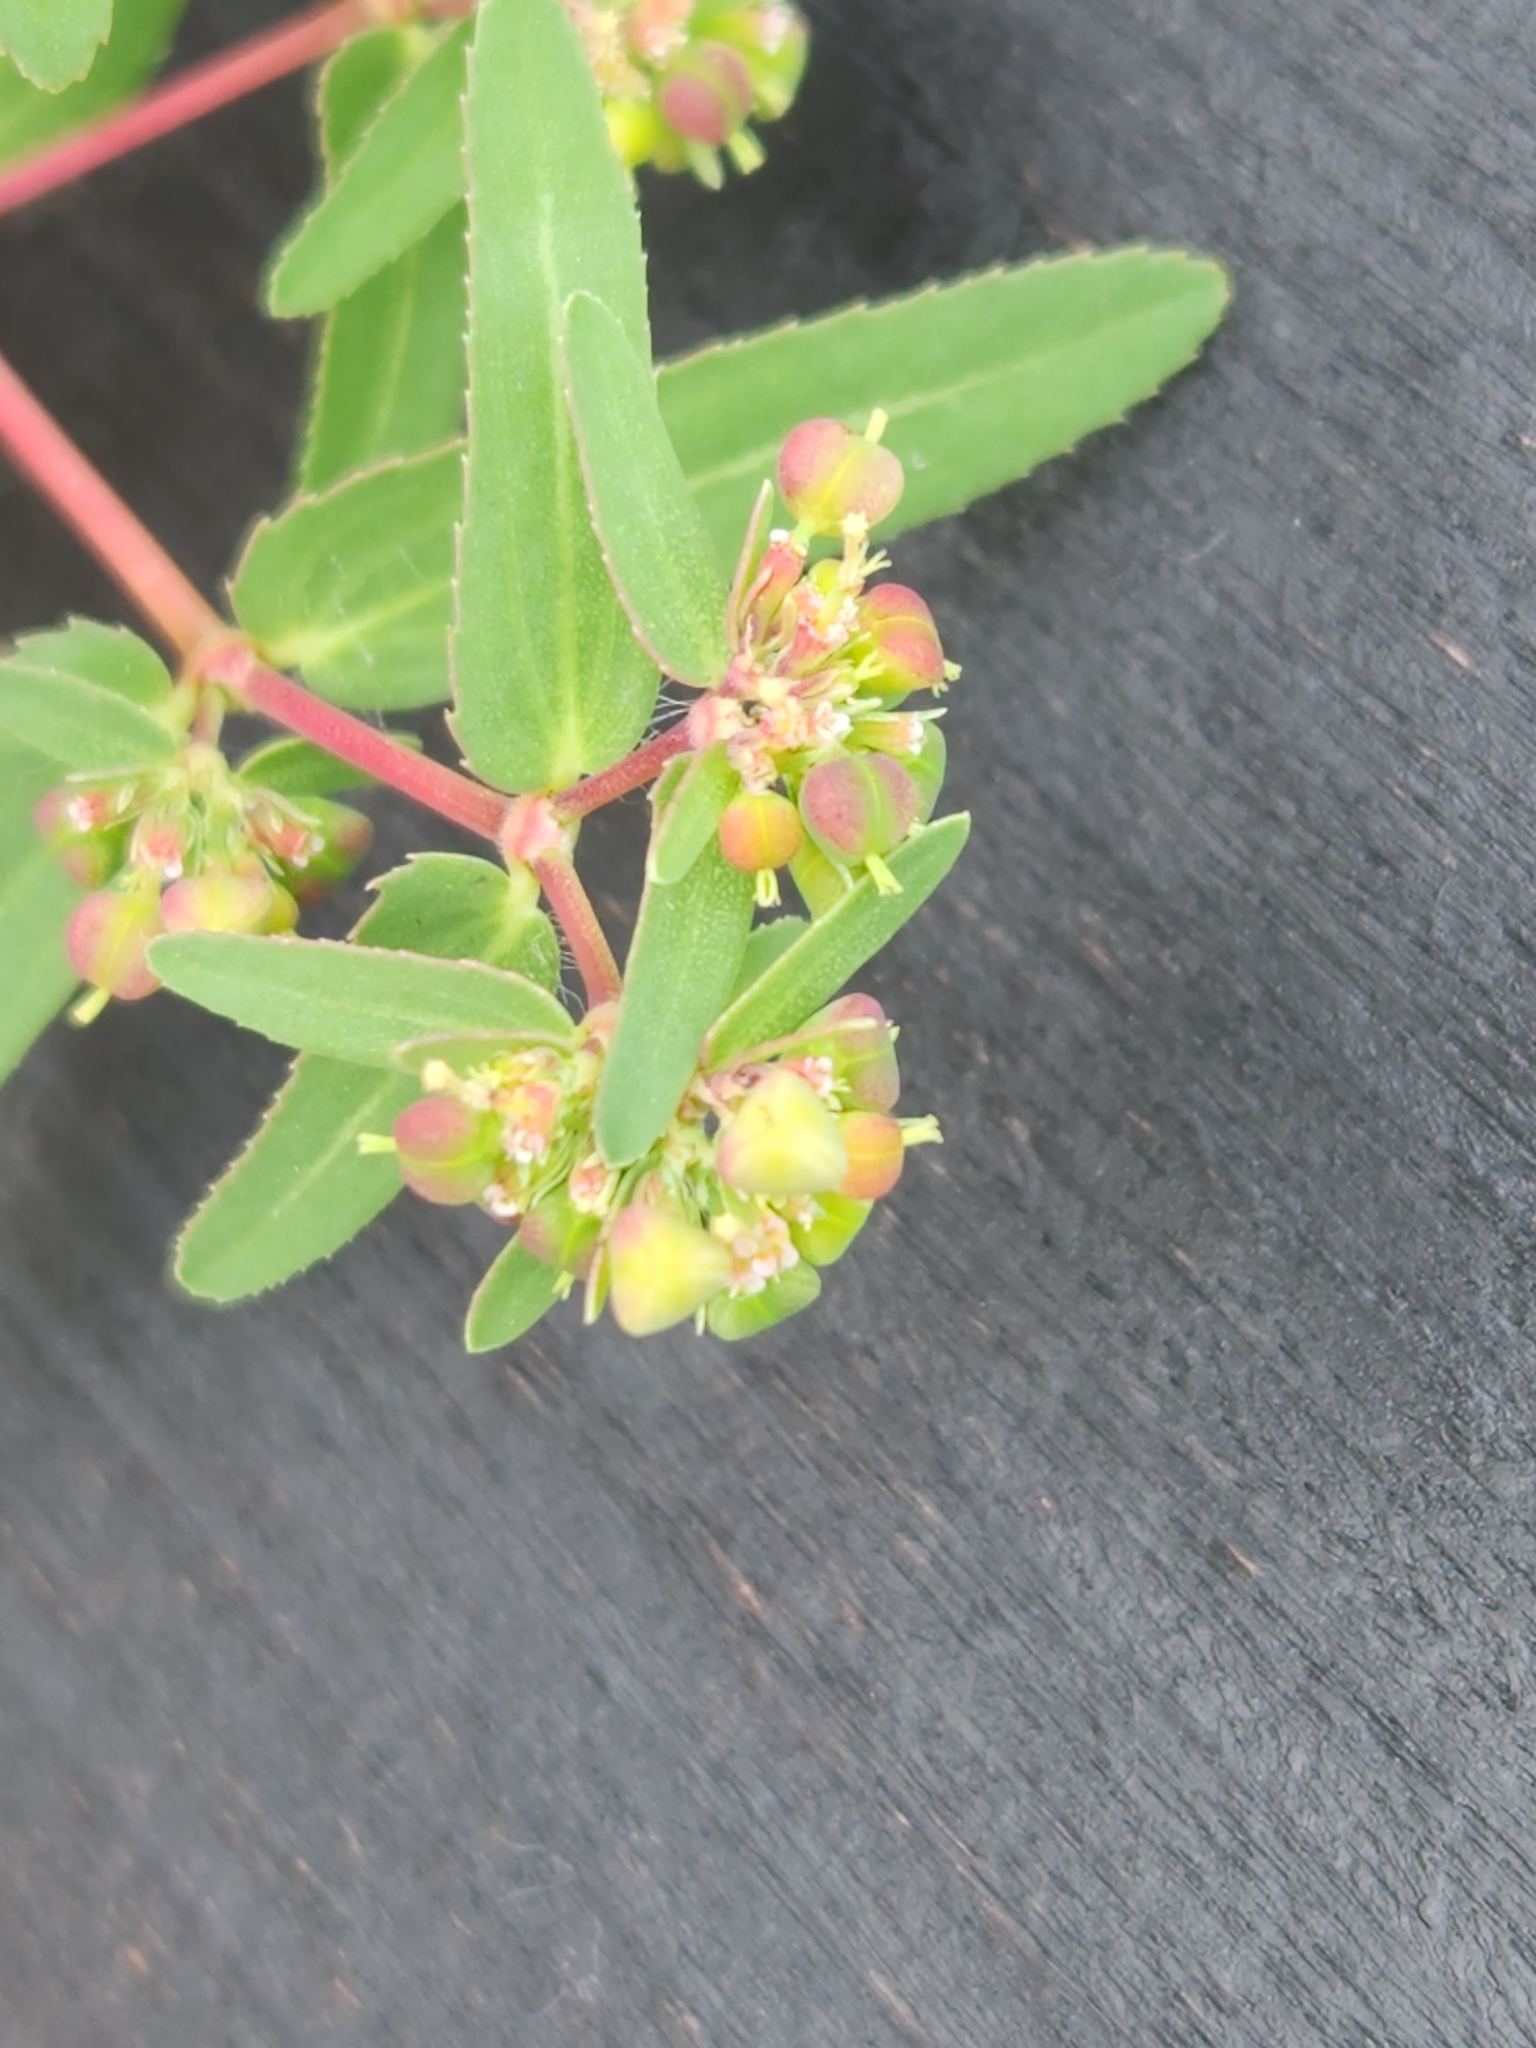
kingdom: Plantae
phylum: Tracheophyta
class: Magnoliopsida
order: Malpighiales
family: Euphorbiaceae
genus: Euphorbia
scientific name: Euphorbia nutans
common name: Eyebane
